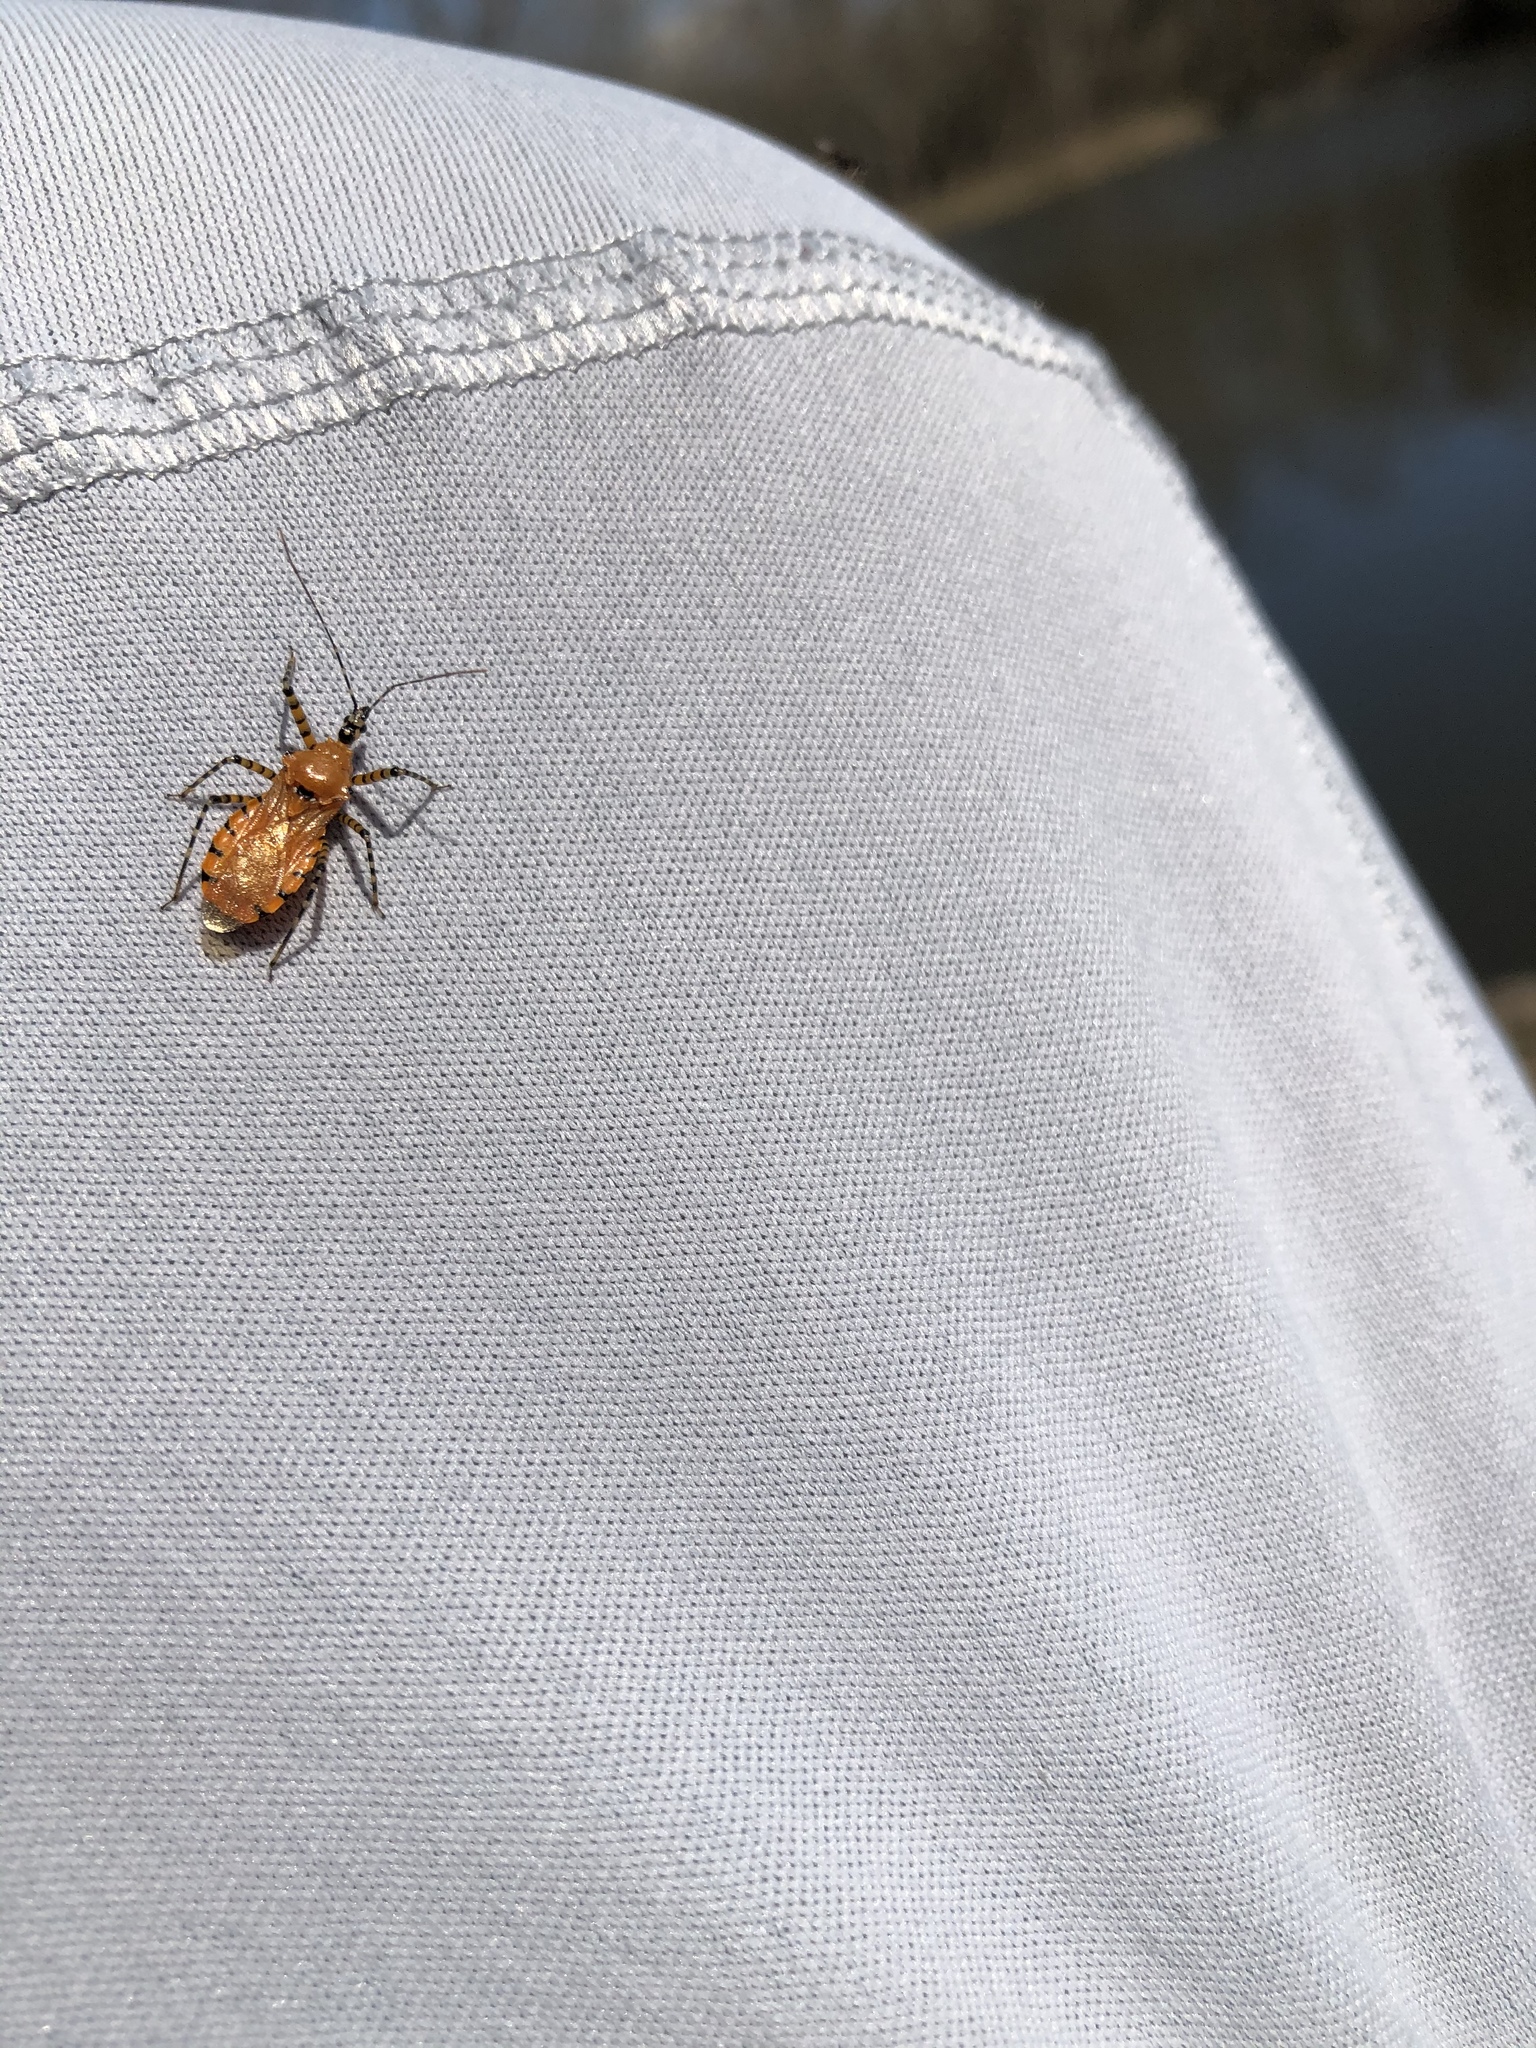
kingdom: Animalia
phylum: Arthropoda
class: Insecta
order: Hemiptera
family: Reduviidae
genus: Pselliopus
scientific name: Pselliopus barberi
